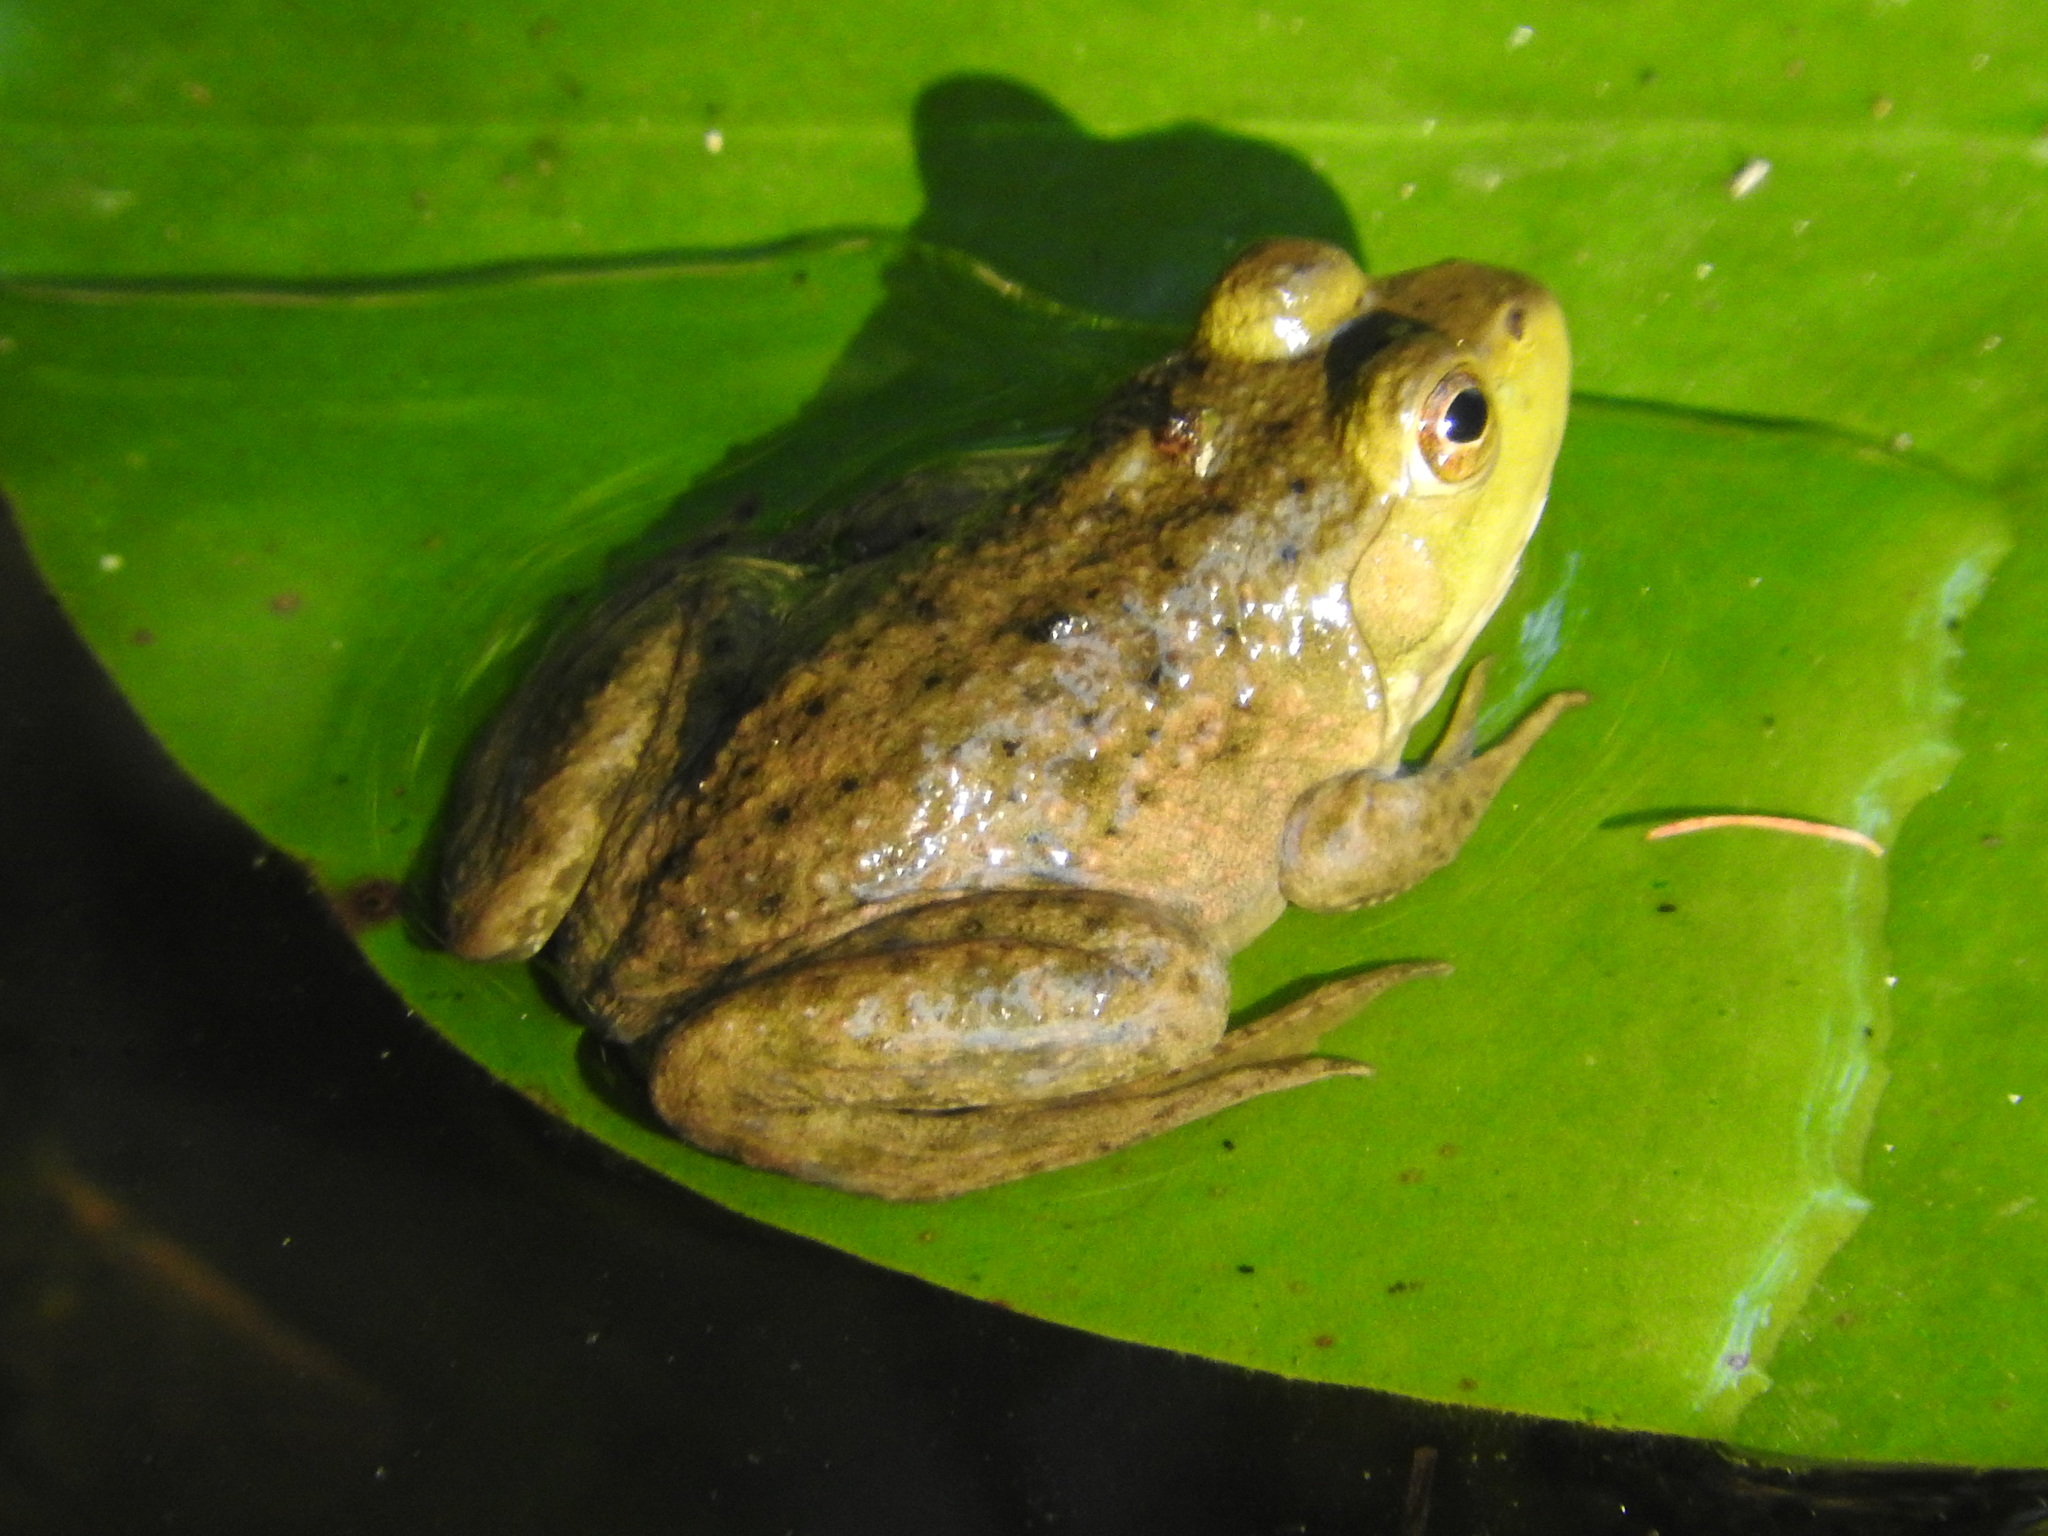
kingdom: Animalia
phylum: Chordata
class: Amphibia
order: Anura
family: Ranidae
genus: Lithobates
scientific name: Lithobates catesbeianus
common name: American bullfrog
